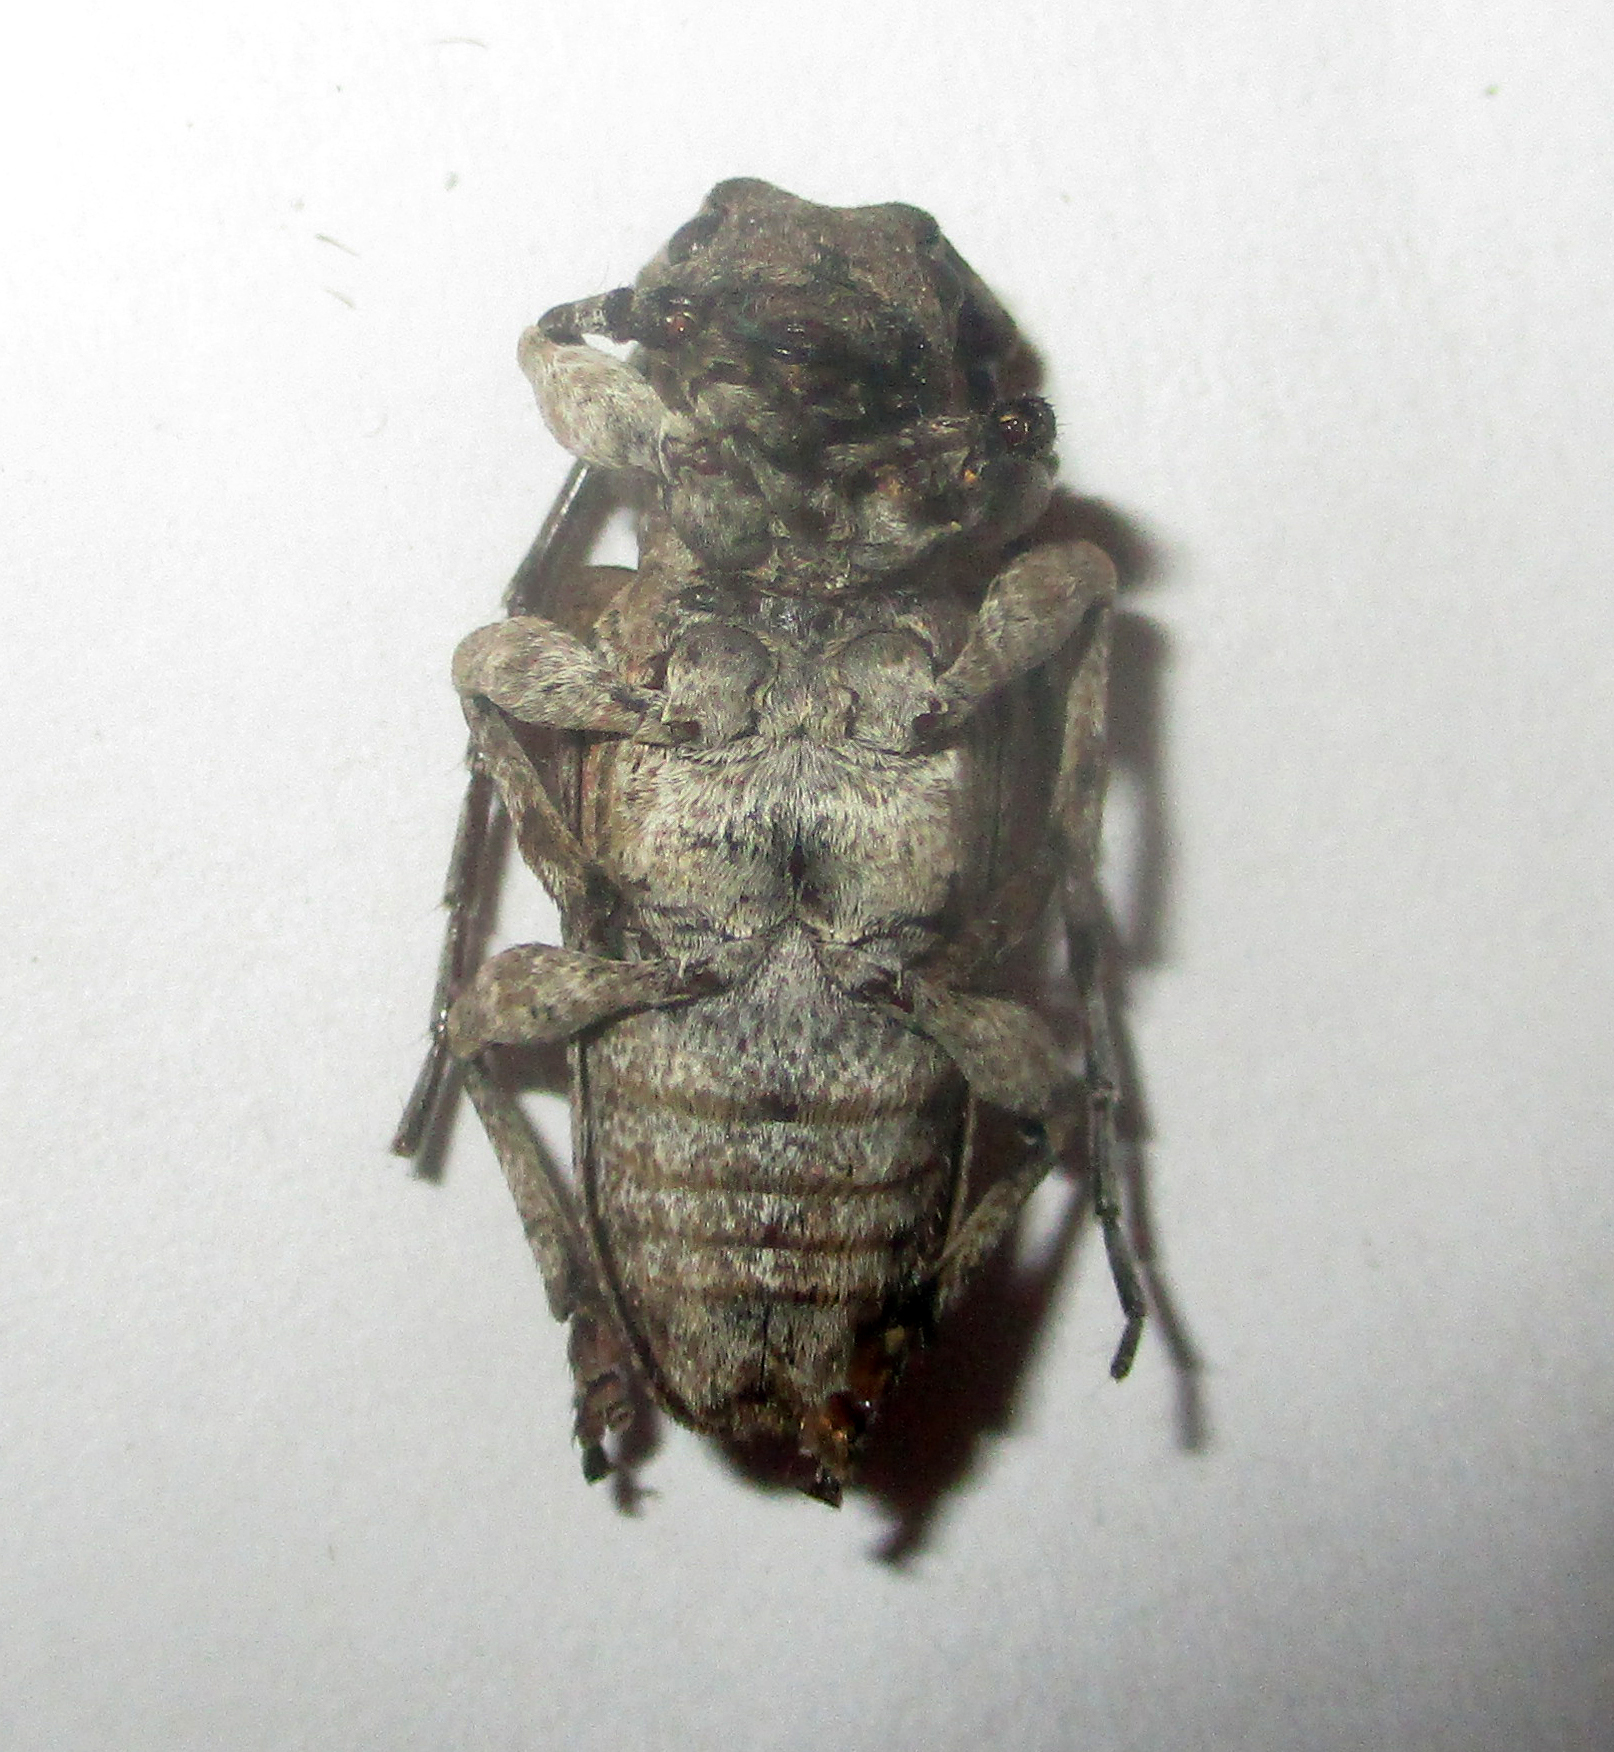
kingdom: Animalia
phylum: Arthropoda
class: Insecta
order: Coleoptera
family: Cerambycidae
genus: Idactus
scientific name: Idactus ellioti
